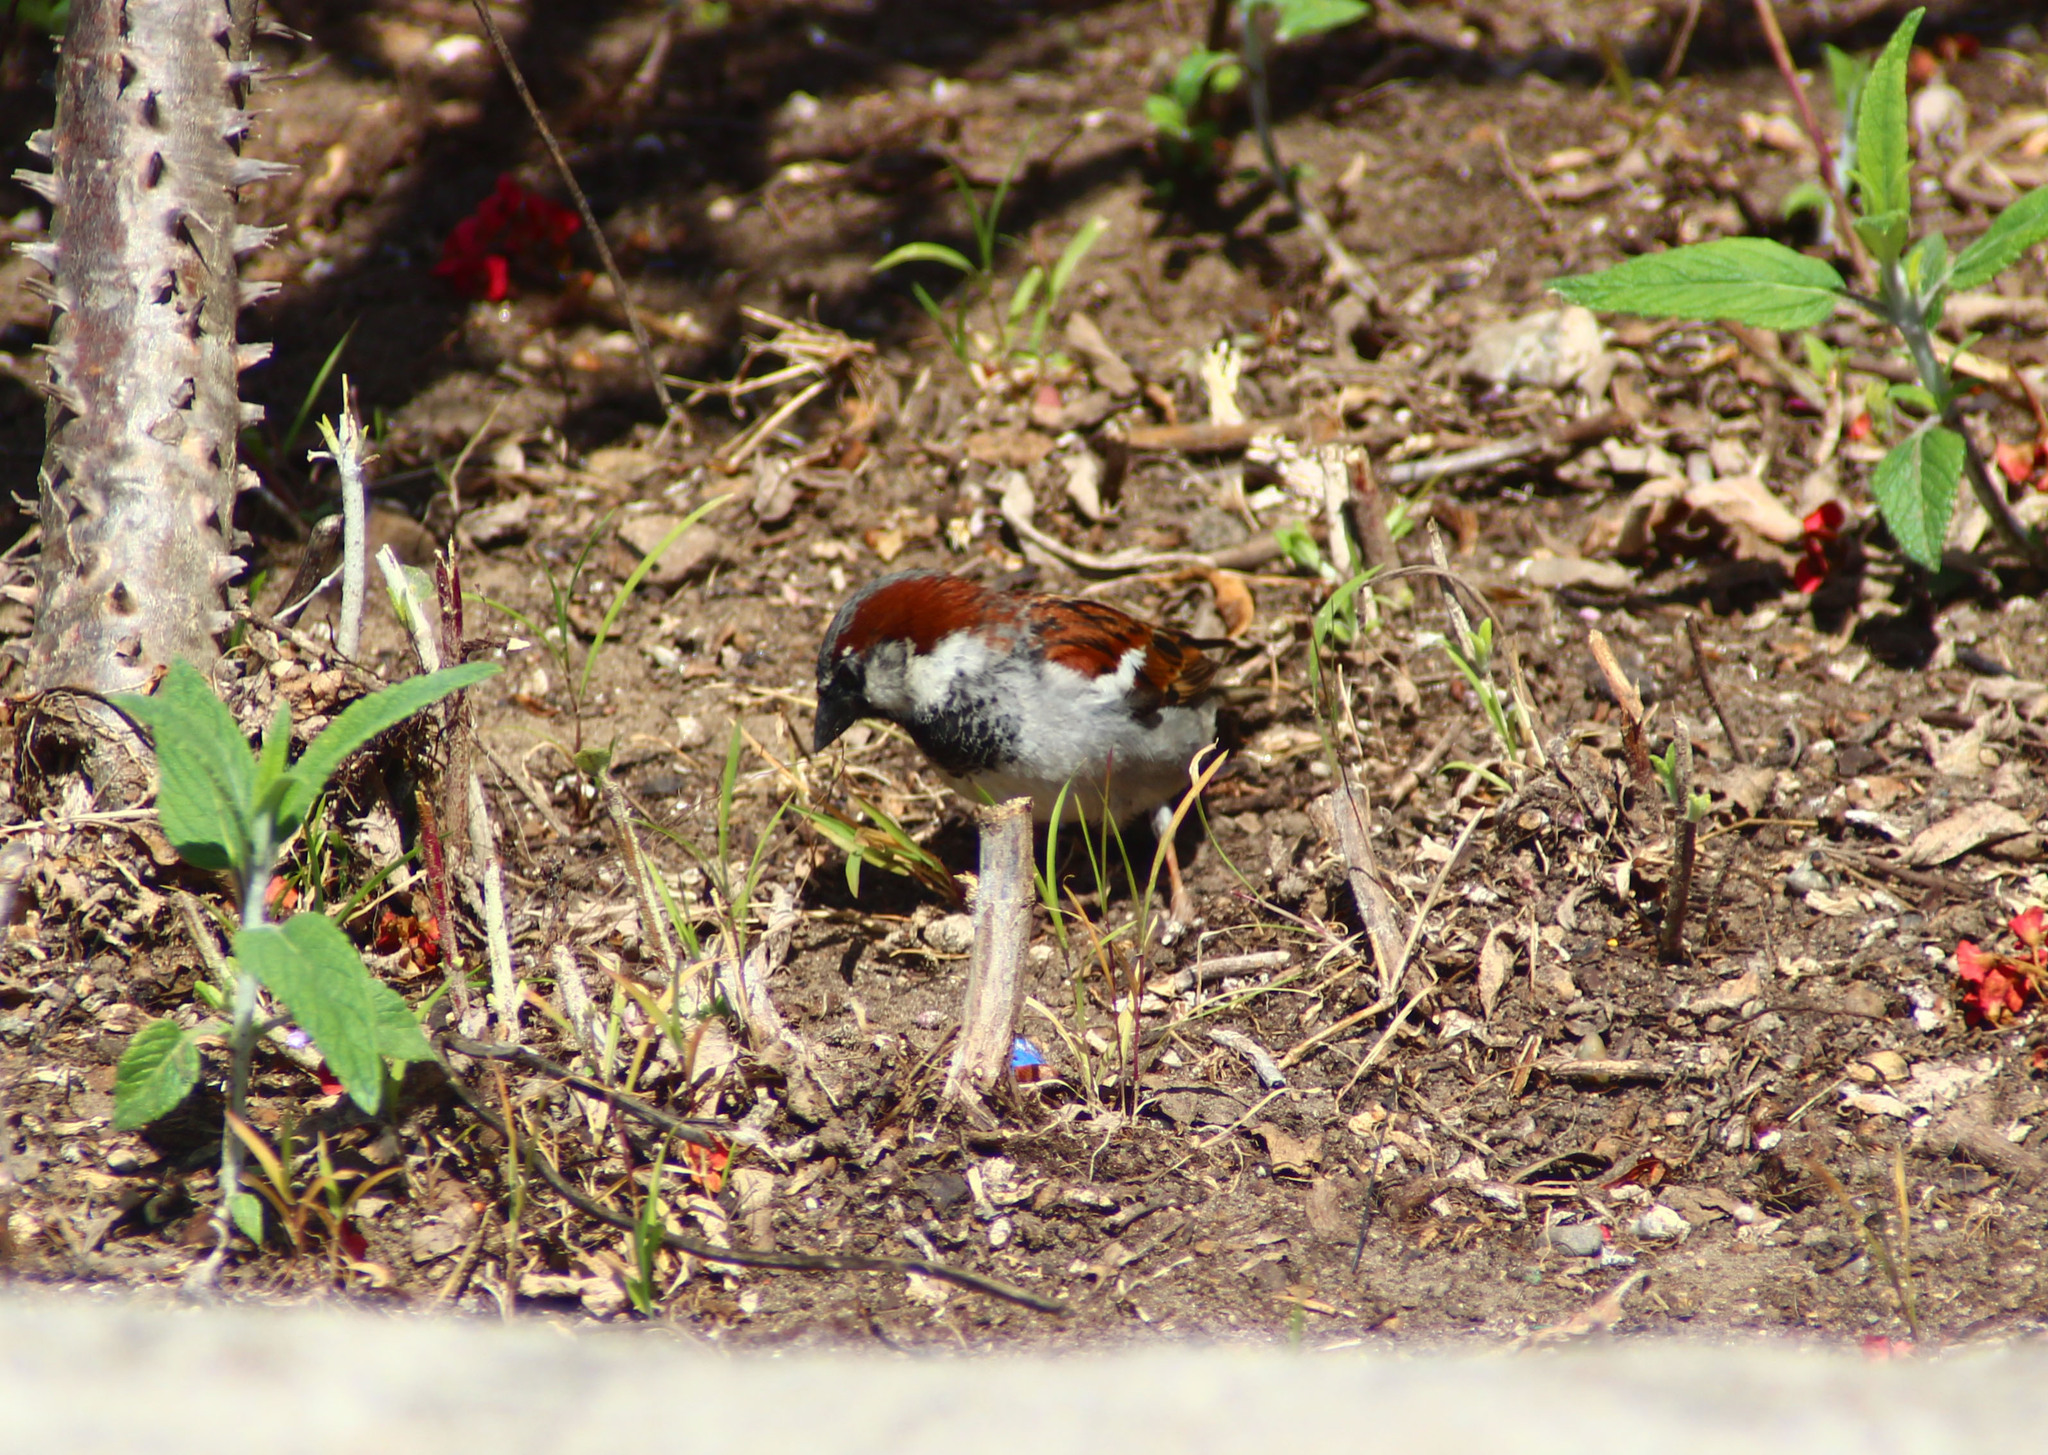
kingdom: Animalia
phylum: Chordata
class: Aves
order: Passeriformes
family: Passeridae
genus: Passer
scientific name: Passer domesticus
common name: House sparrow
